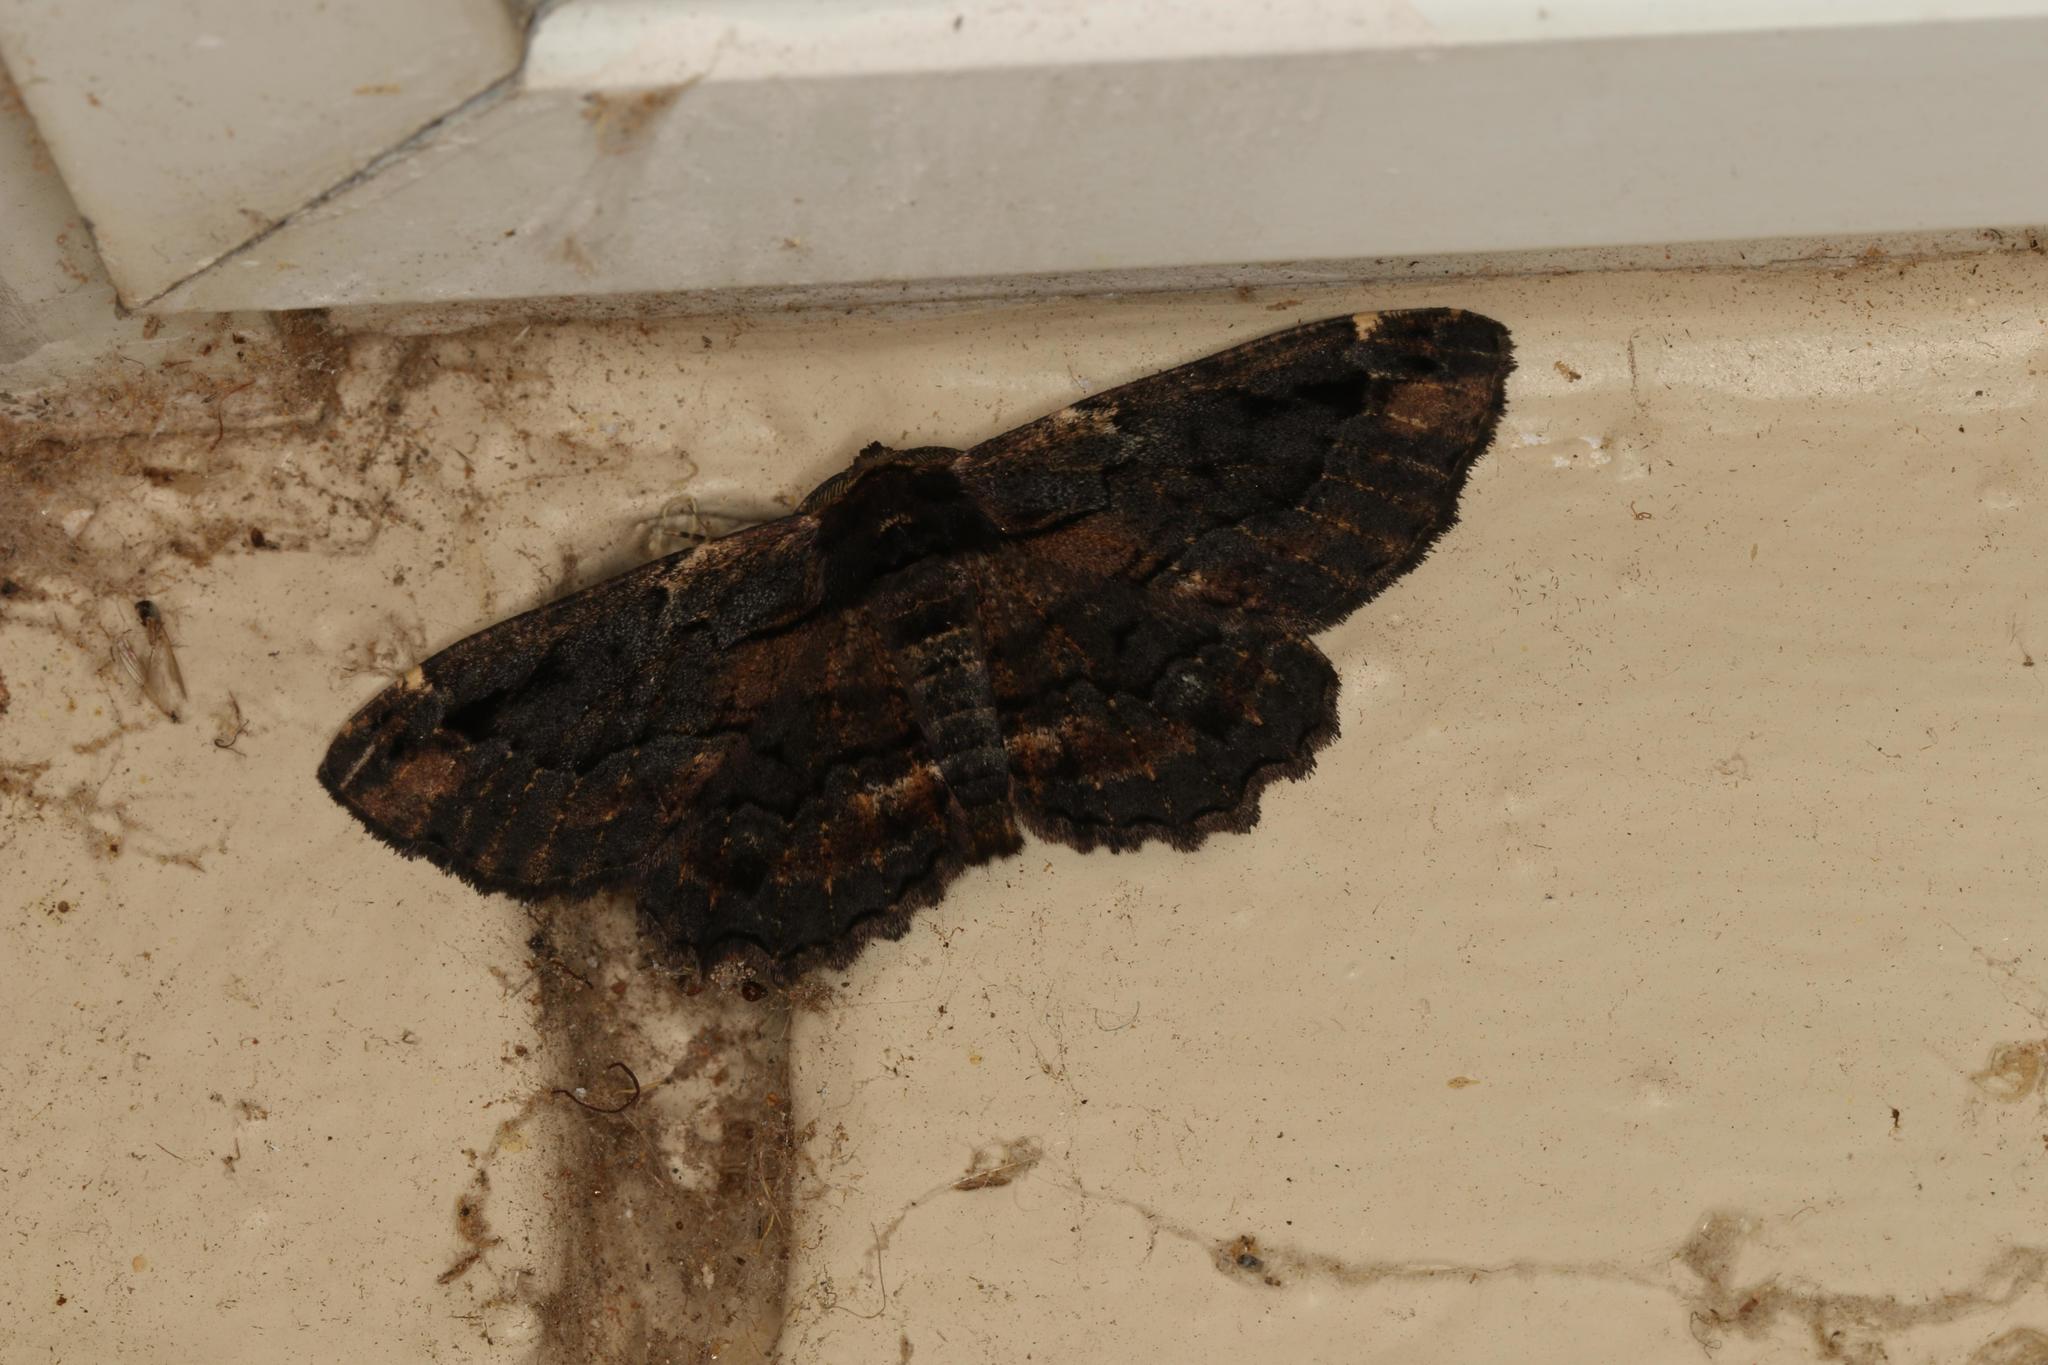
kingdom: Animalia
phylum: Arthropoda
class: Insecta
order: Lepidoptera
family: Geometridae
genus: Pholodes
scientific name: Pholodes sinistraria
